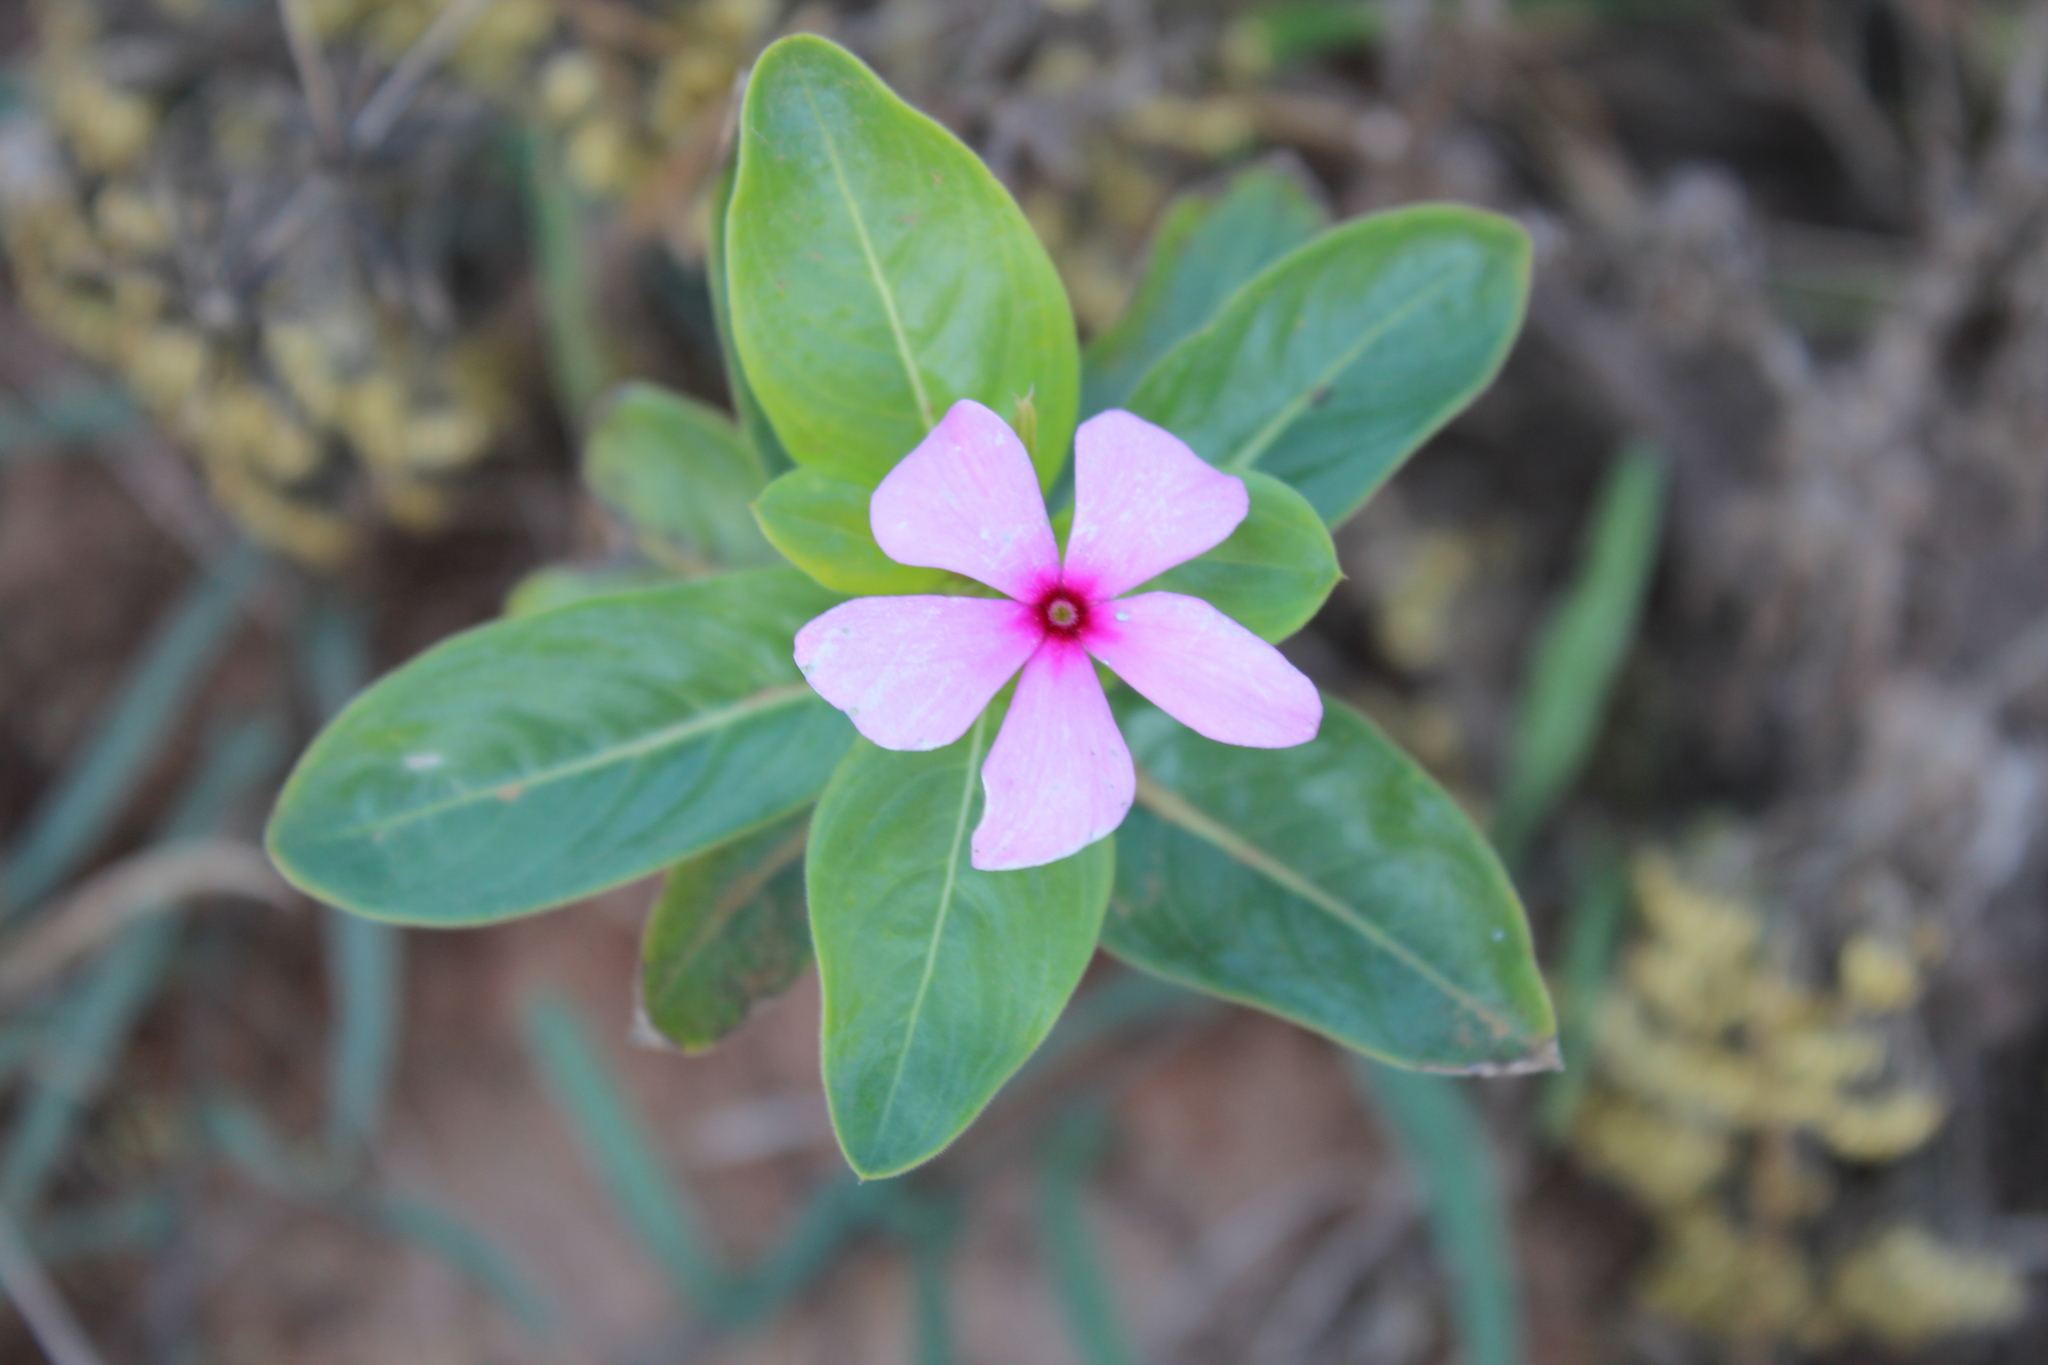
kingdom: Plantae
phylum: Tracheophyta
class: Magnoliopsida
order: Gentianales
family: Apocynaceae
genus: Catharanthus
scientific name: Catharanthus roseus
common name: Madagascar periwinkle
